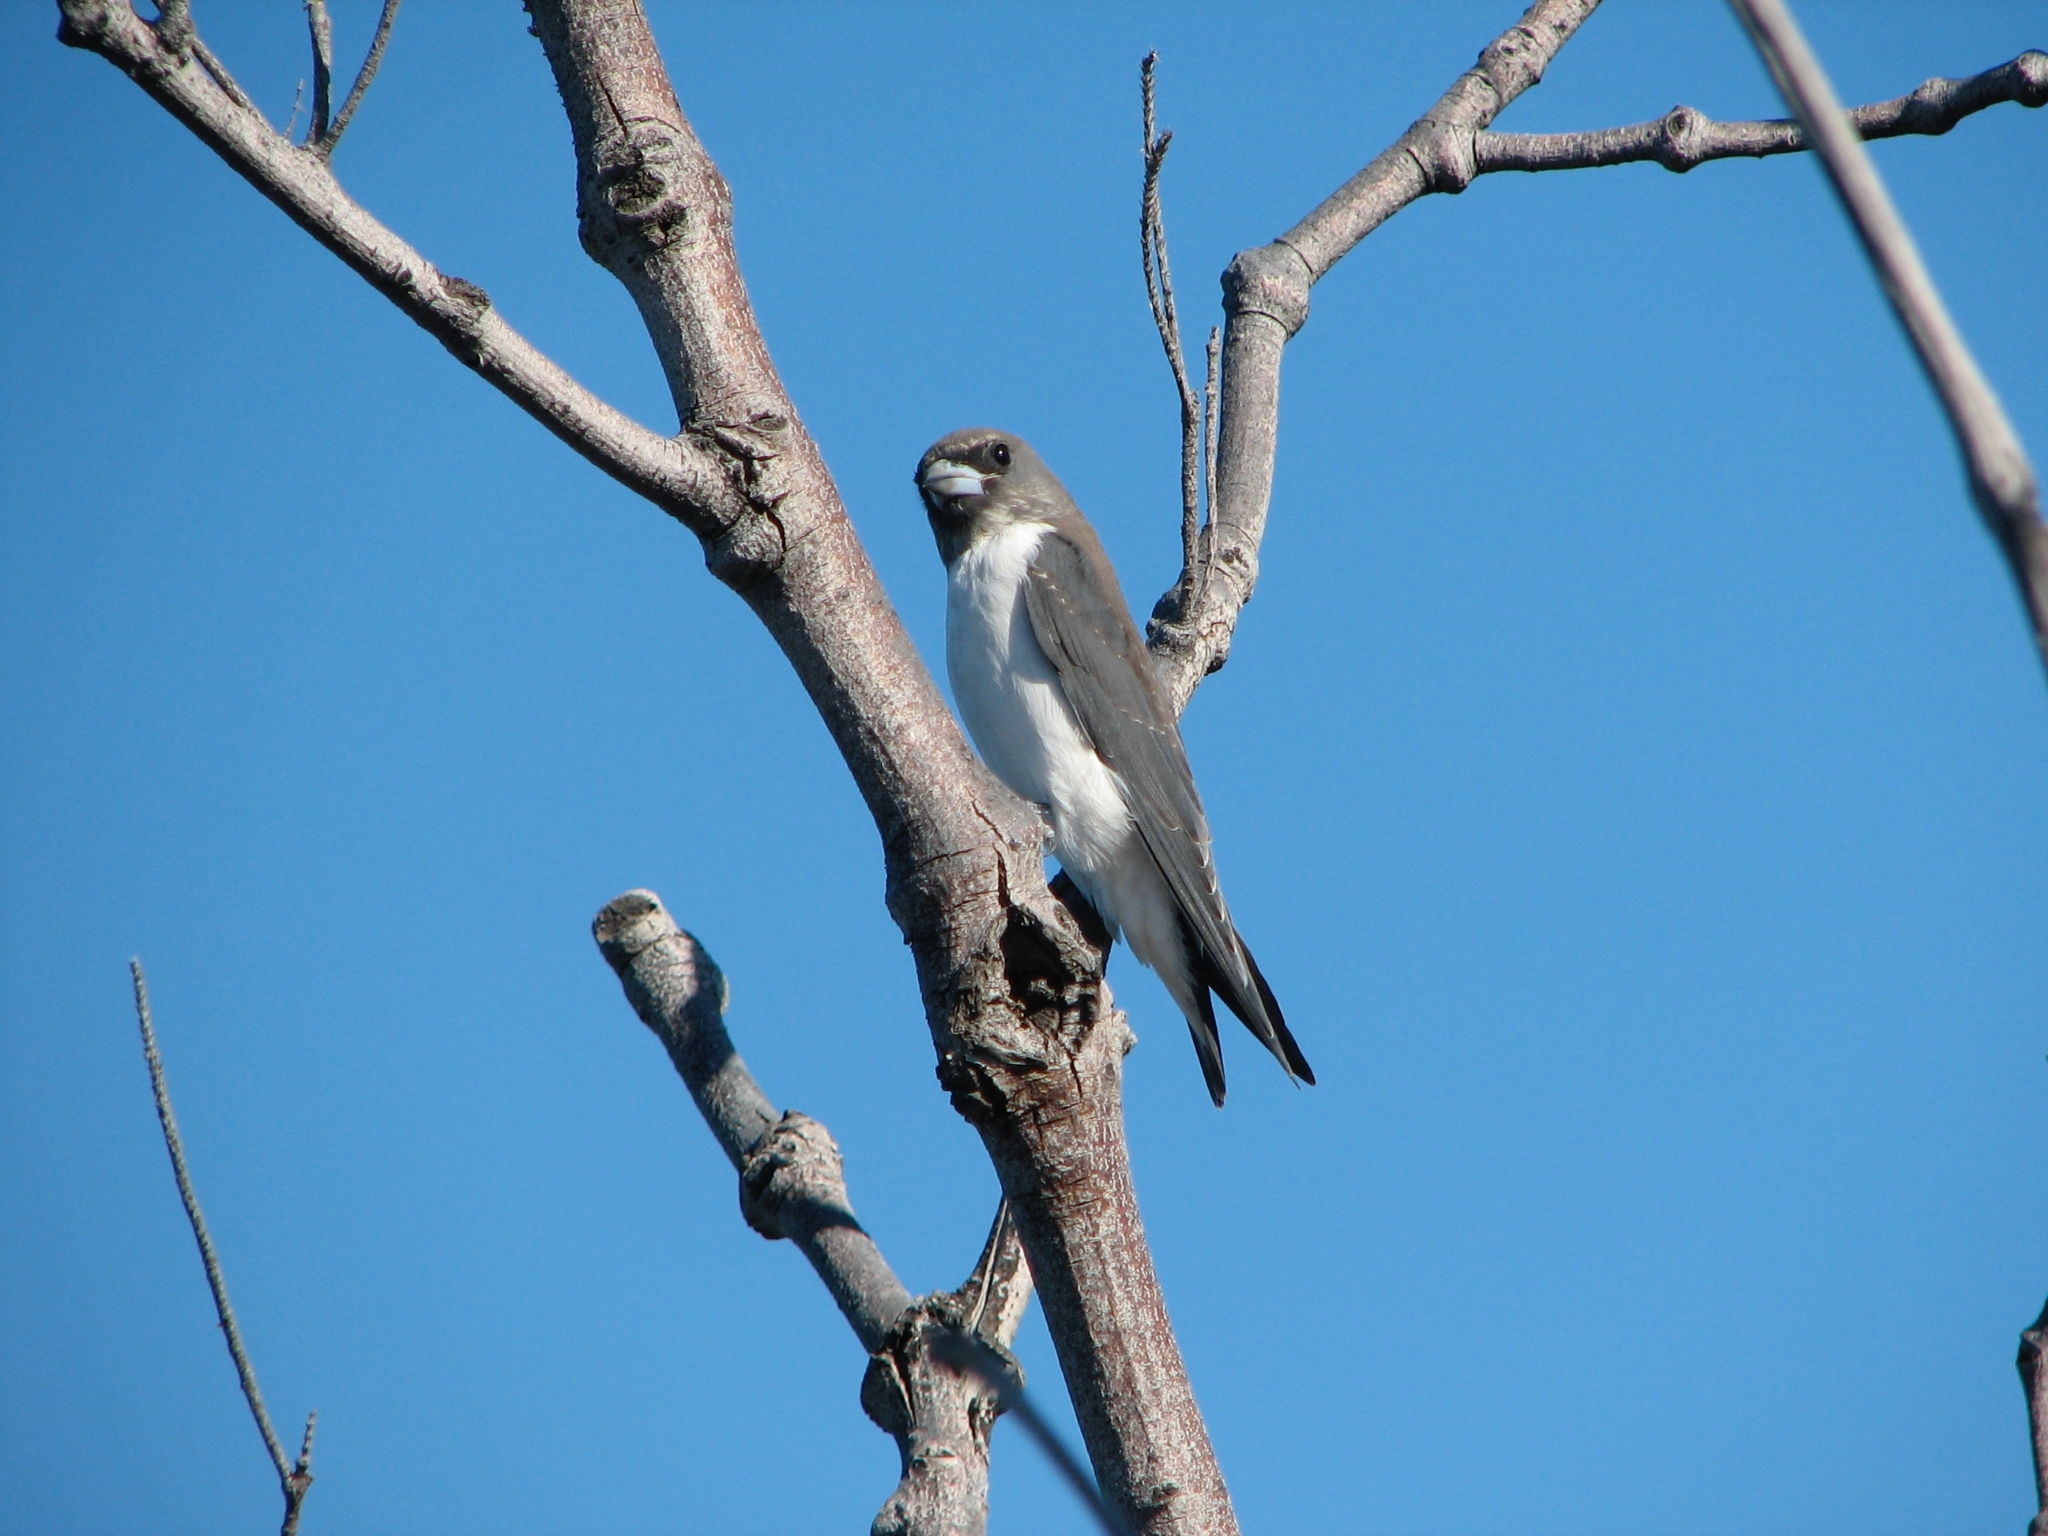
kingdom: Animalia
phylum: Chordata
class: Aves
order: Passeriformes
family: Artamidae
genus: Artamus
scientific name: Artamus leucoryn
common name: White-breasted woodswallow
